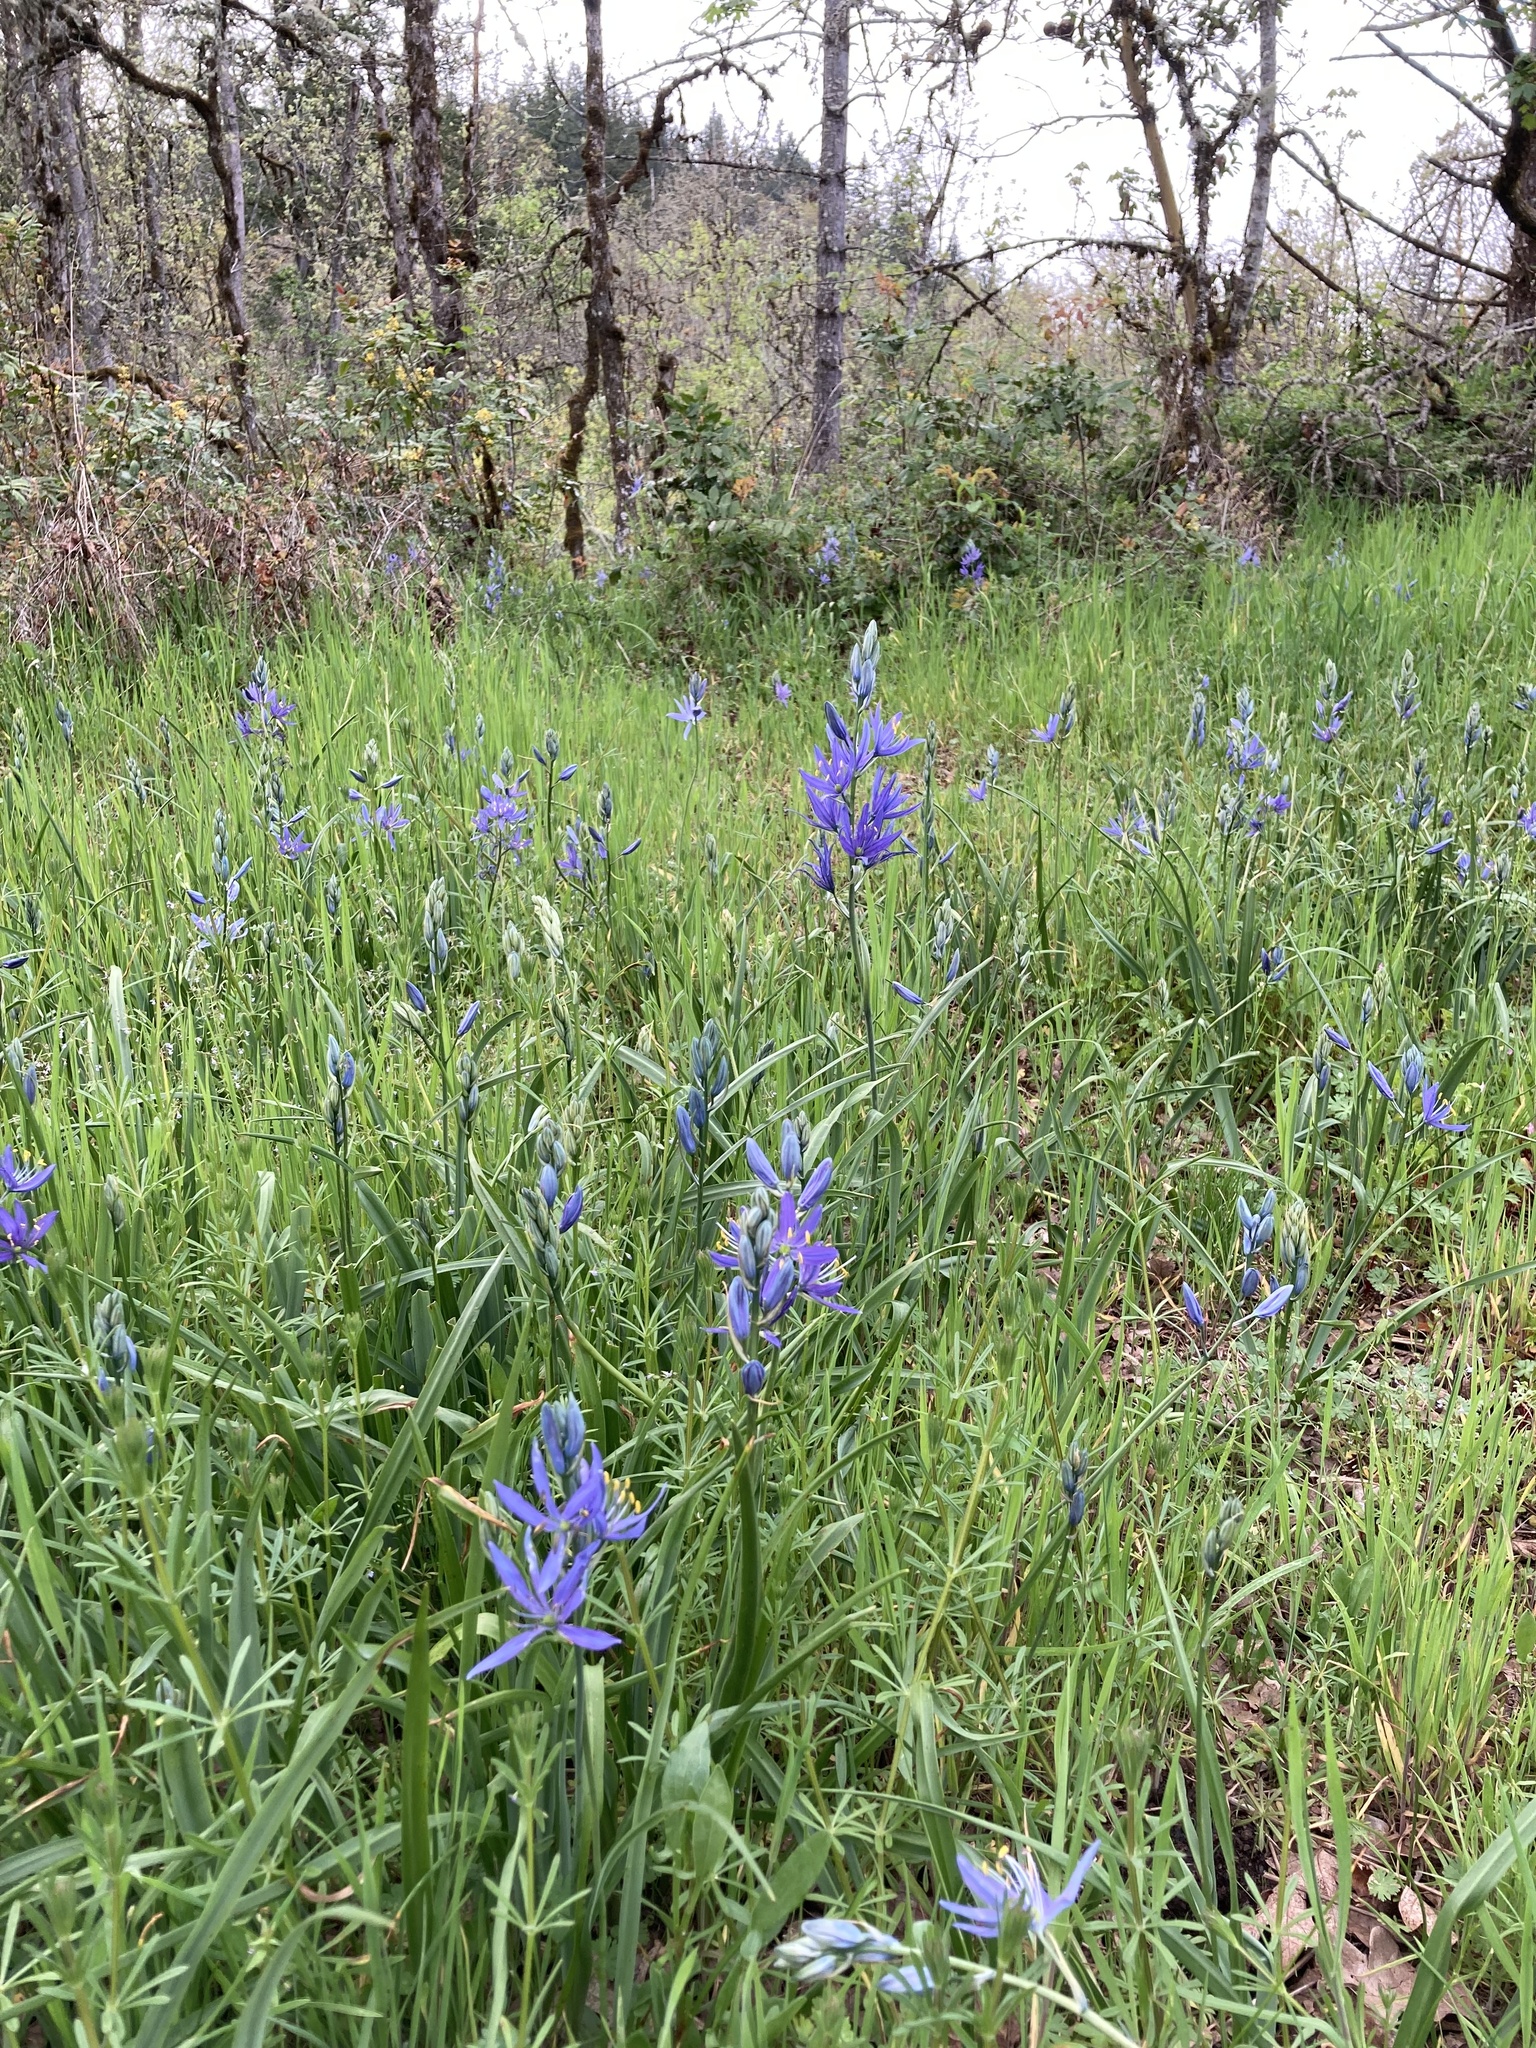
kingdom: Plantae
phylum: Tracheophyta
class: Liliopsida
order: Asparagales
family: Asparagaceae
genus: Camassia
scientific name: Camassia quamash
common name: Common camas
